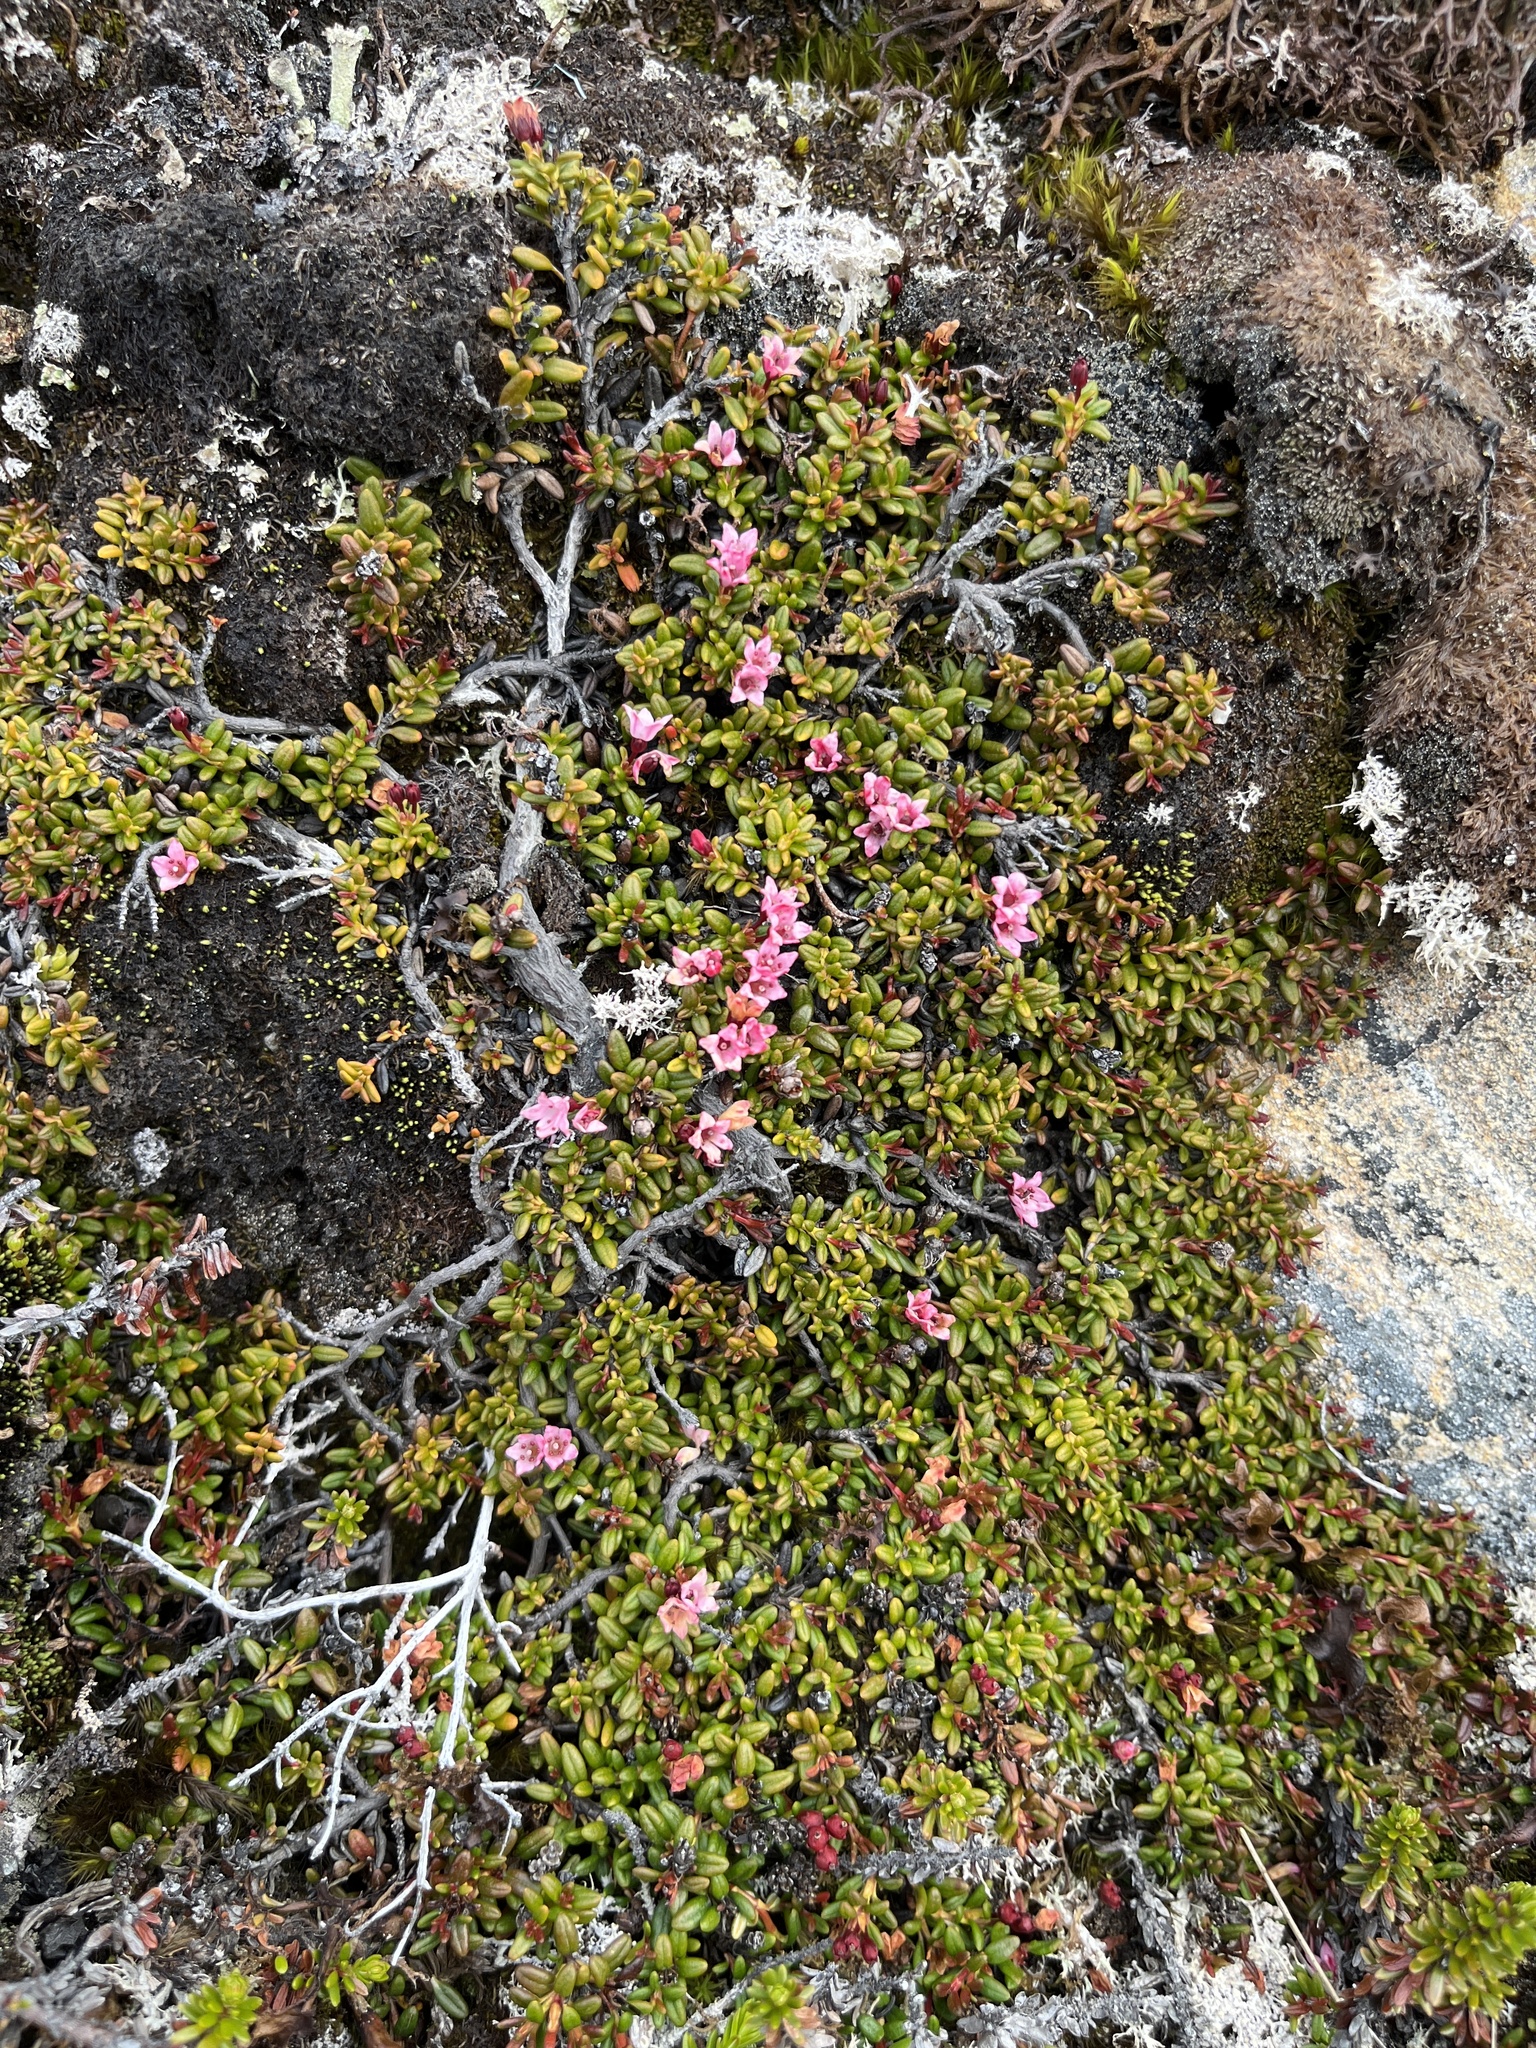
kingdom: Plantae
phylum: Tracheophyta
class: Magnoliopsida
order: Ericales
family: Ericaceae
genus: Kalmia
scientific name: Kalmia procumbens
